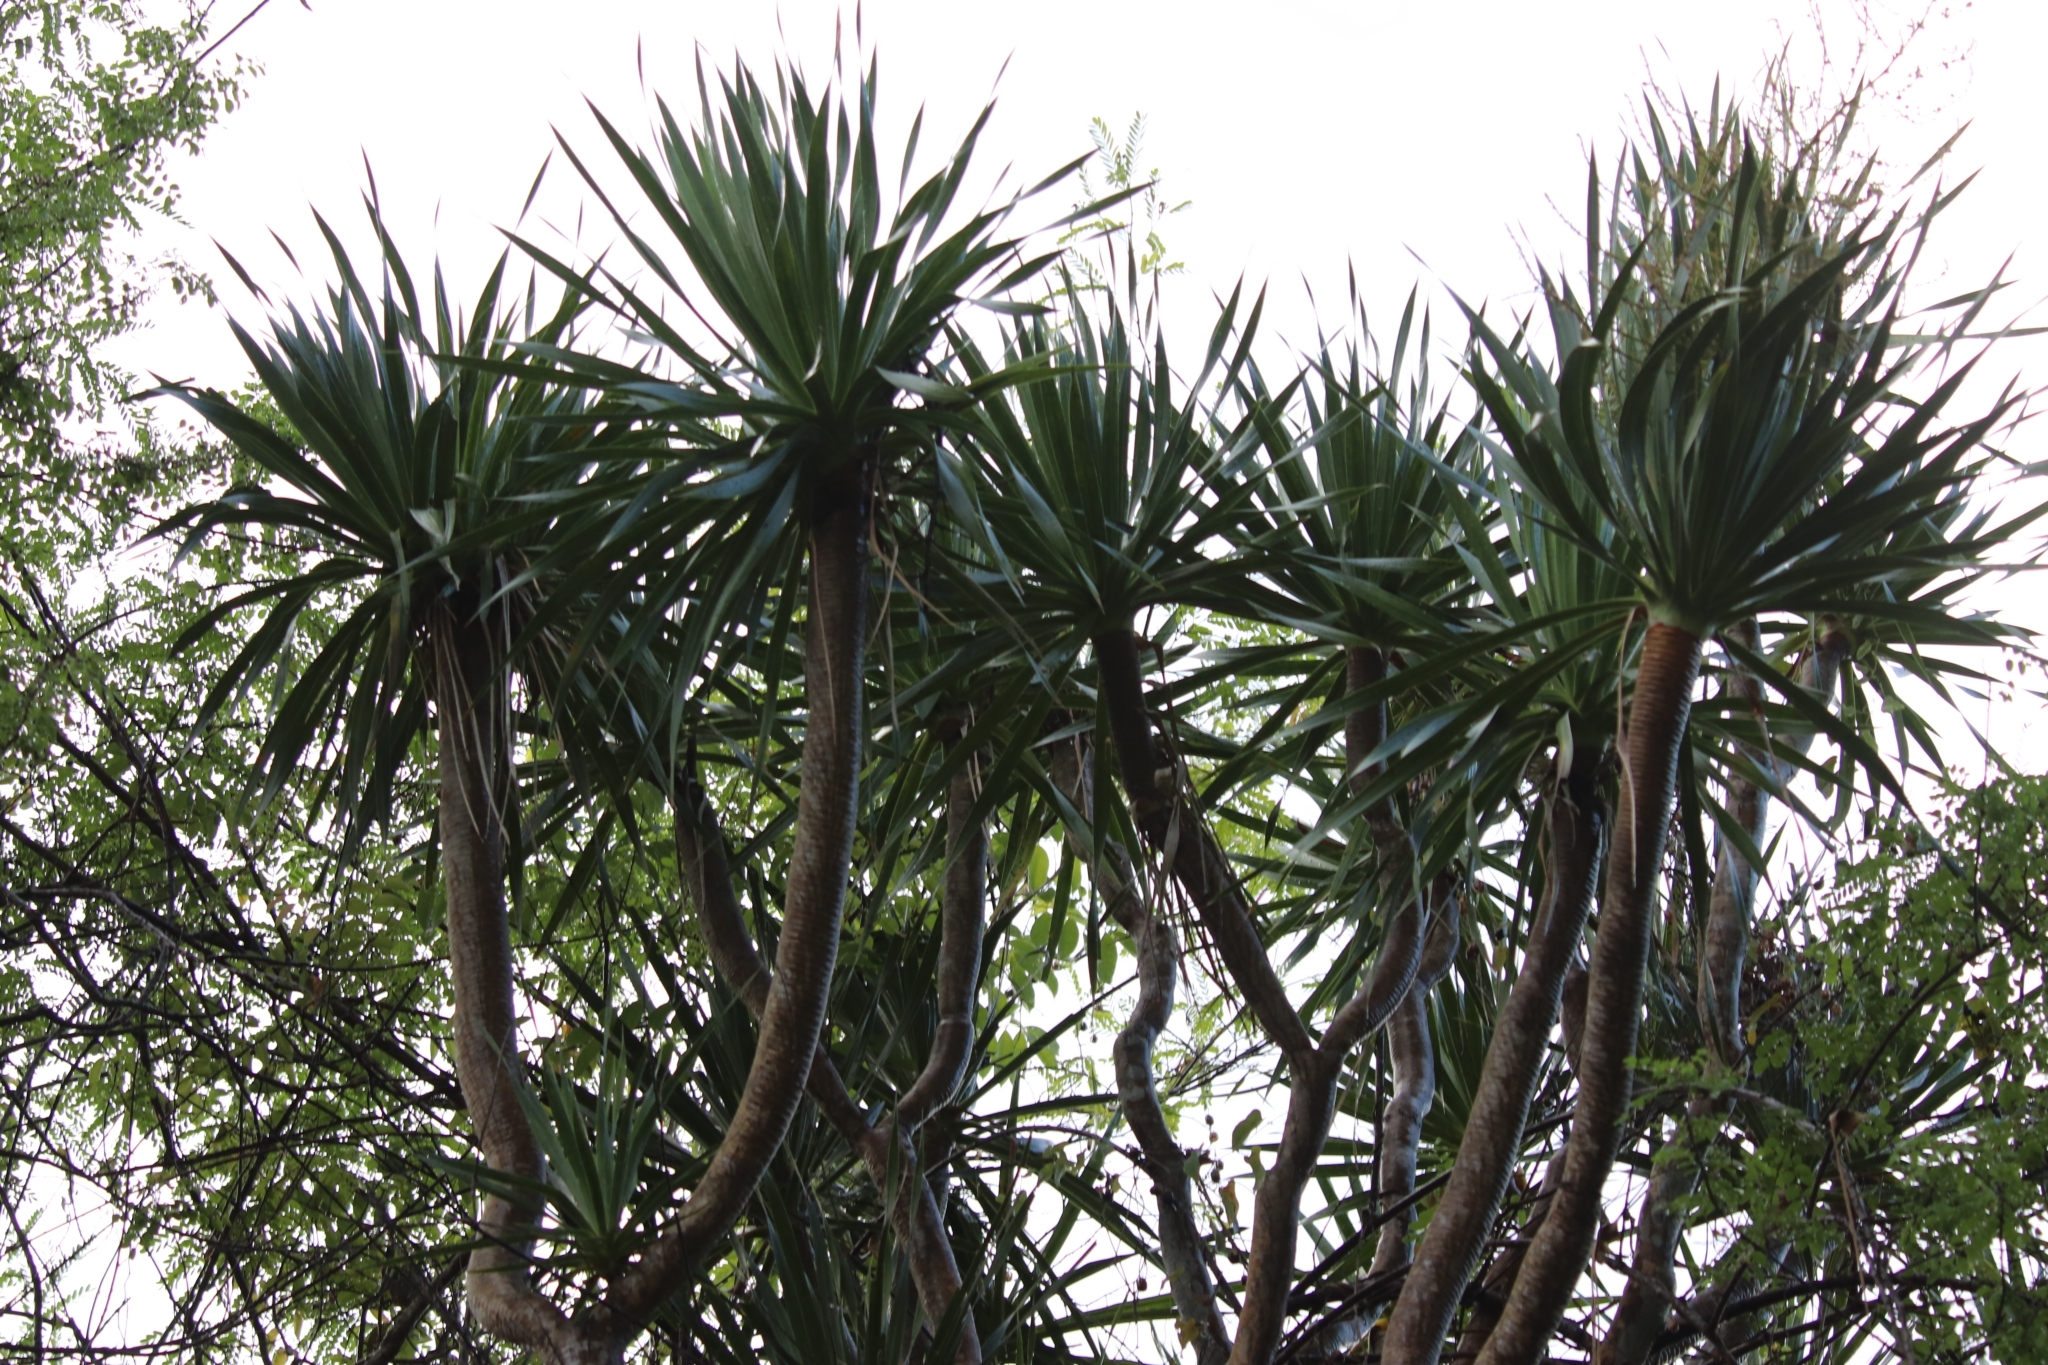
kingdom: Plantae
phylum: Tracheophyta
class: Liliopsida
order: Asparagales
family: Asparagaceae
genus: Dracaena
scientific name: Dracaena multiflora
